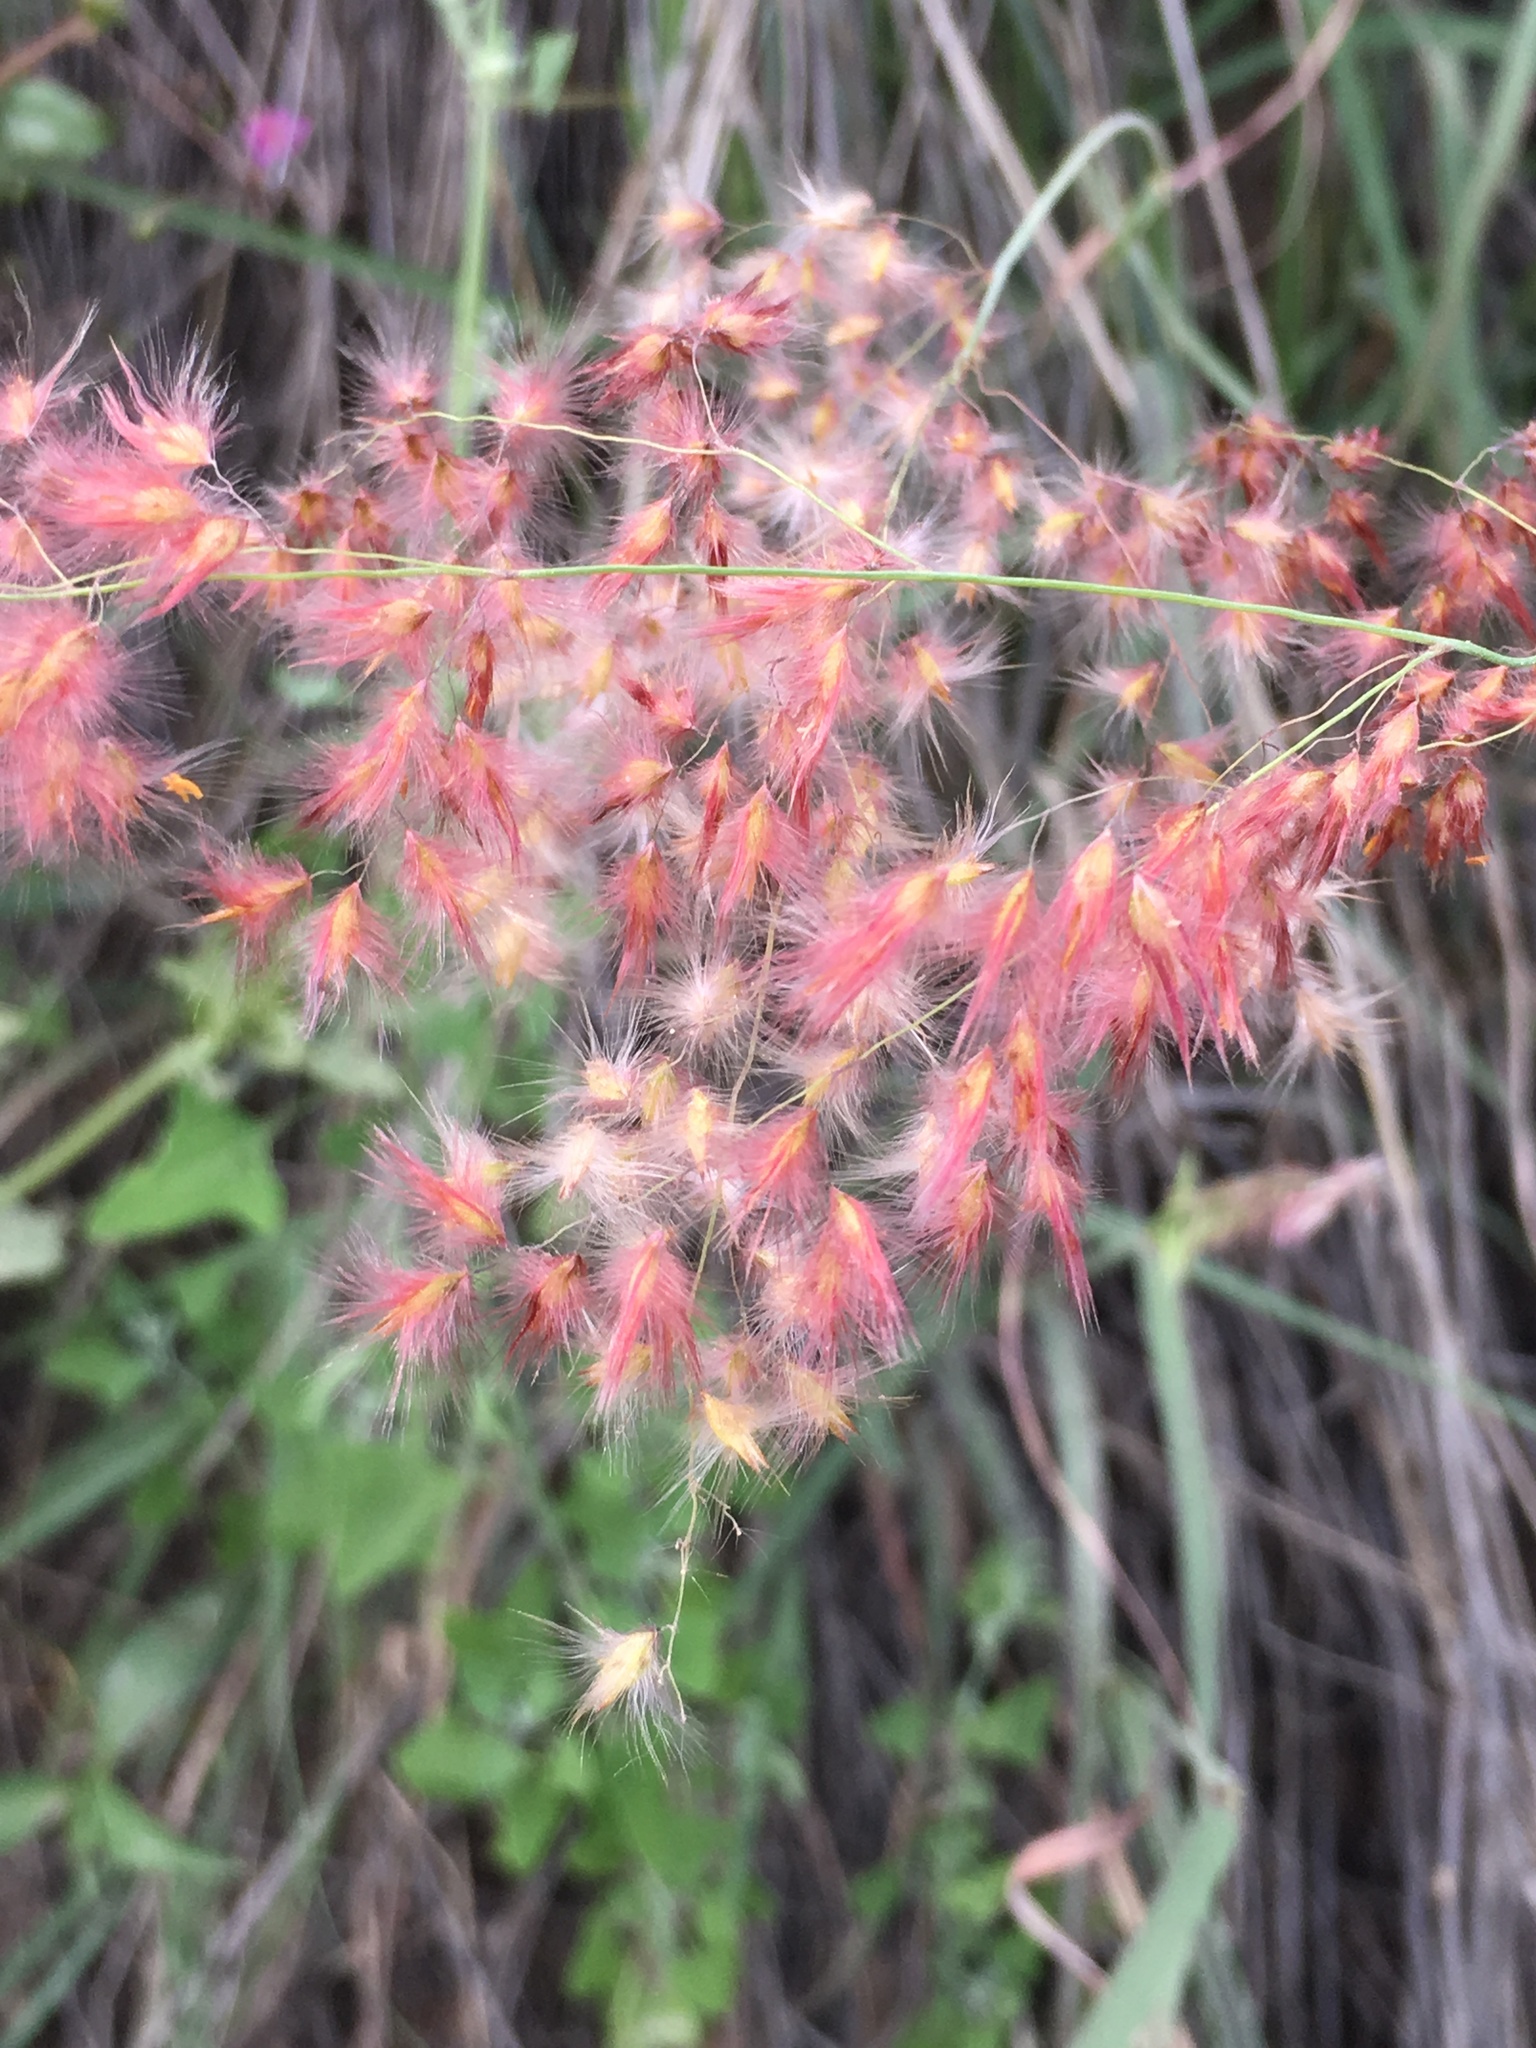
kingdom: Plantae
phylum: Tracheophyta
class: Liliopsida
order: Poales
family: Poaceae
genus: Melinis
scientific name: Melinis repens
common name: Rose natal grass
